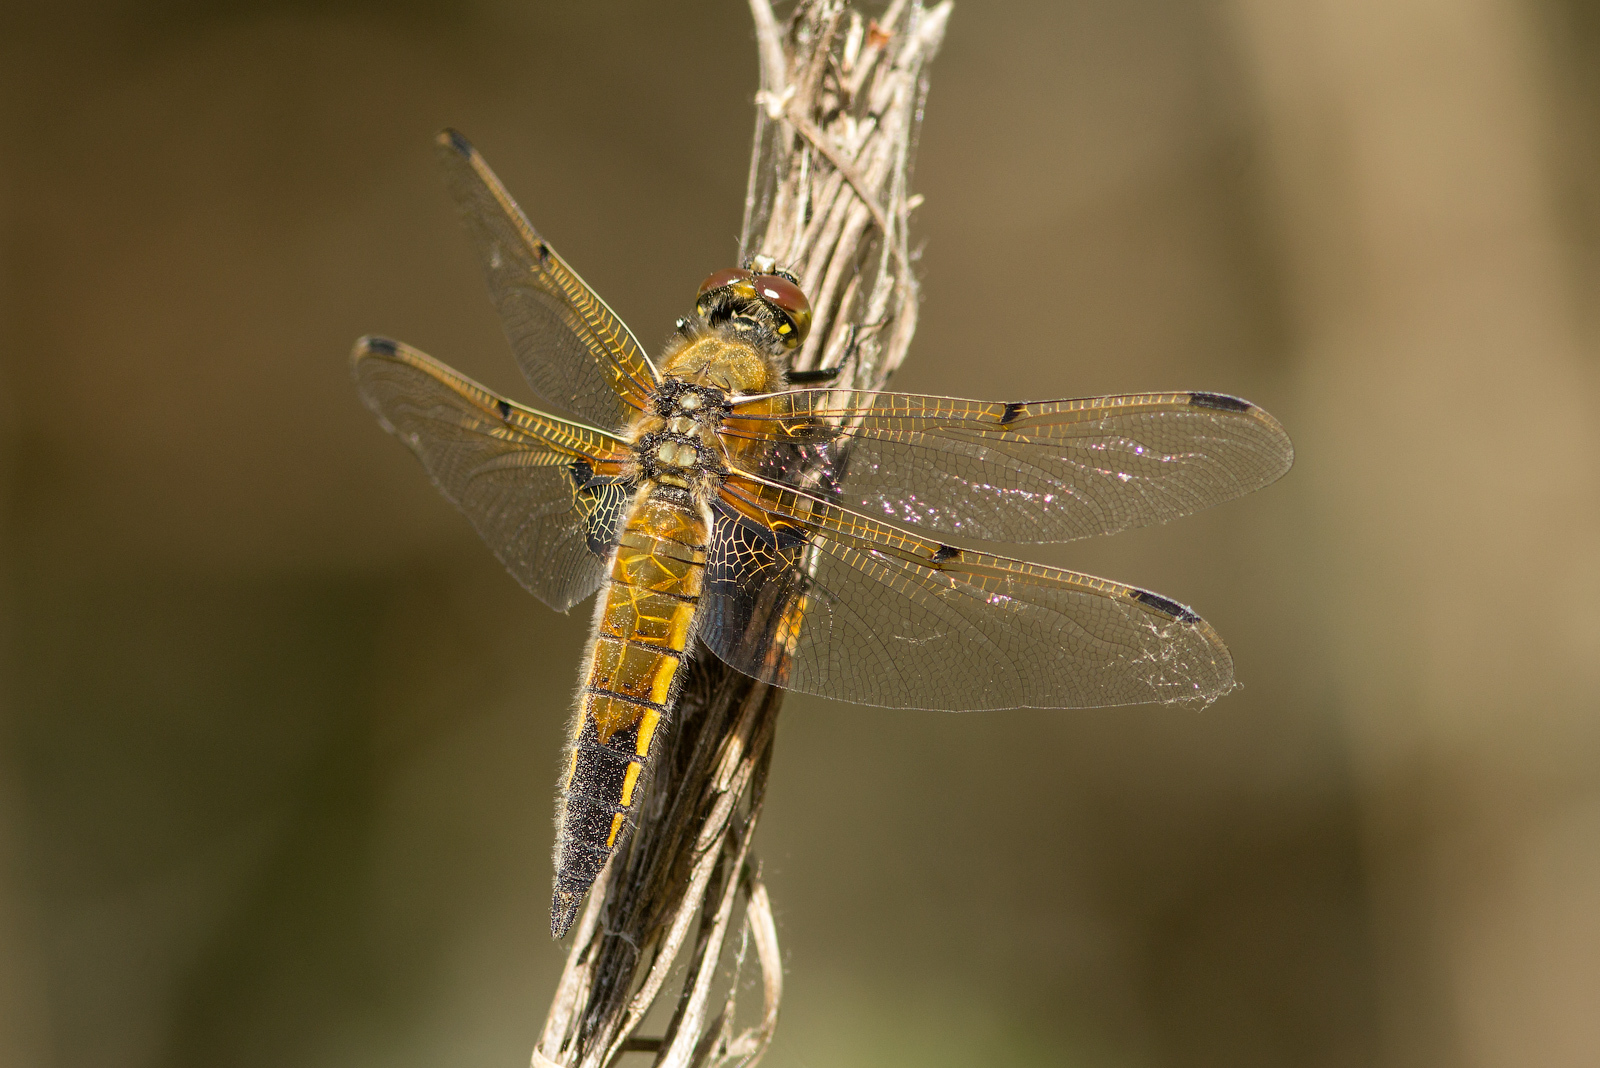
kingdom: Animalia
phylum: Arthropoda
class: Insecta
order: Odonata
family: Libellulidae
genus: Libellula
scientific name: Libellula quadrimaculata
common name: Four-spotted chaser
